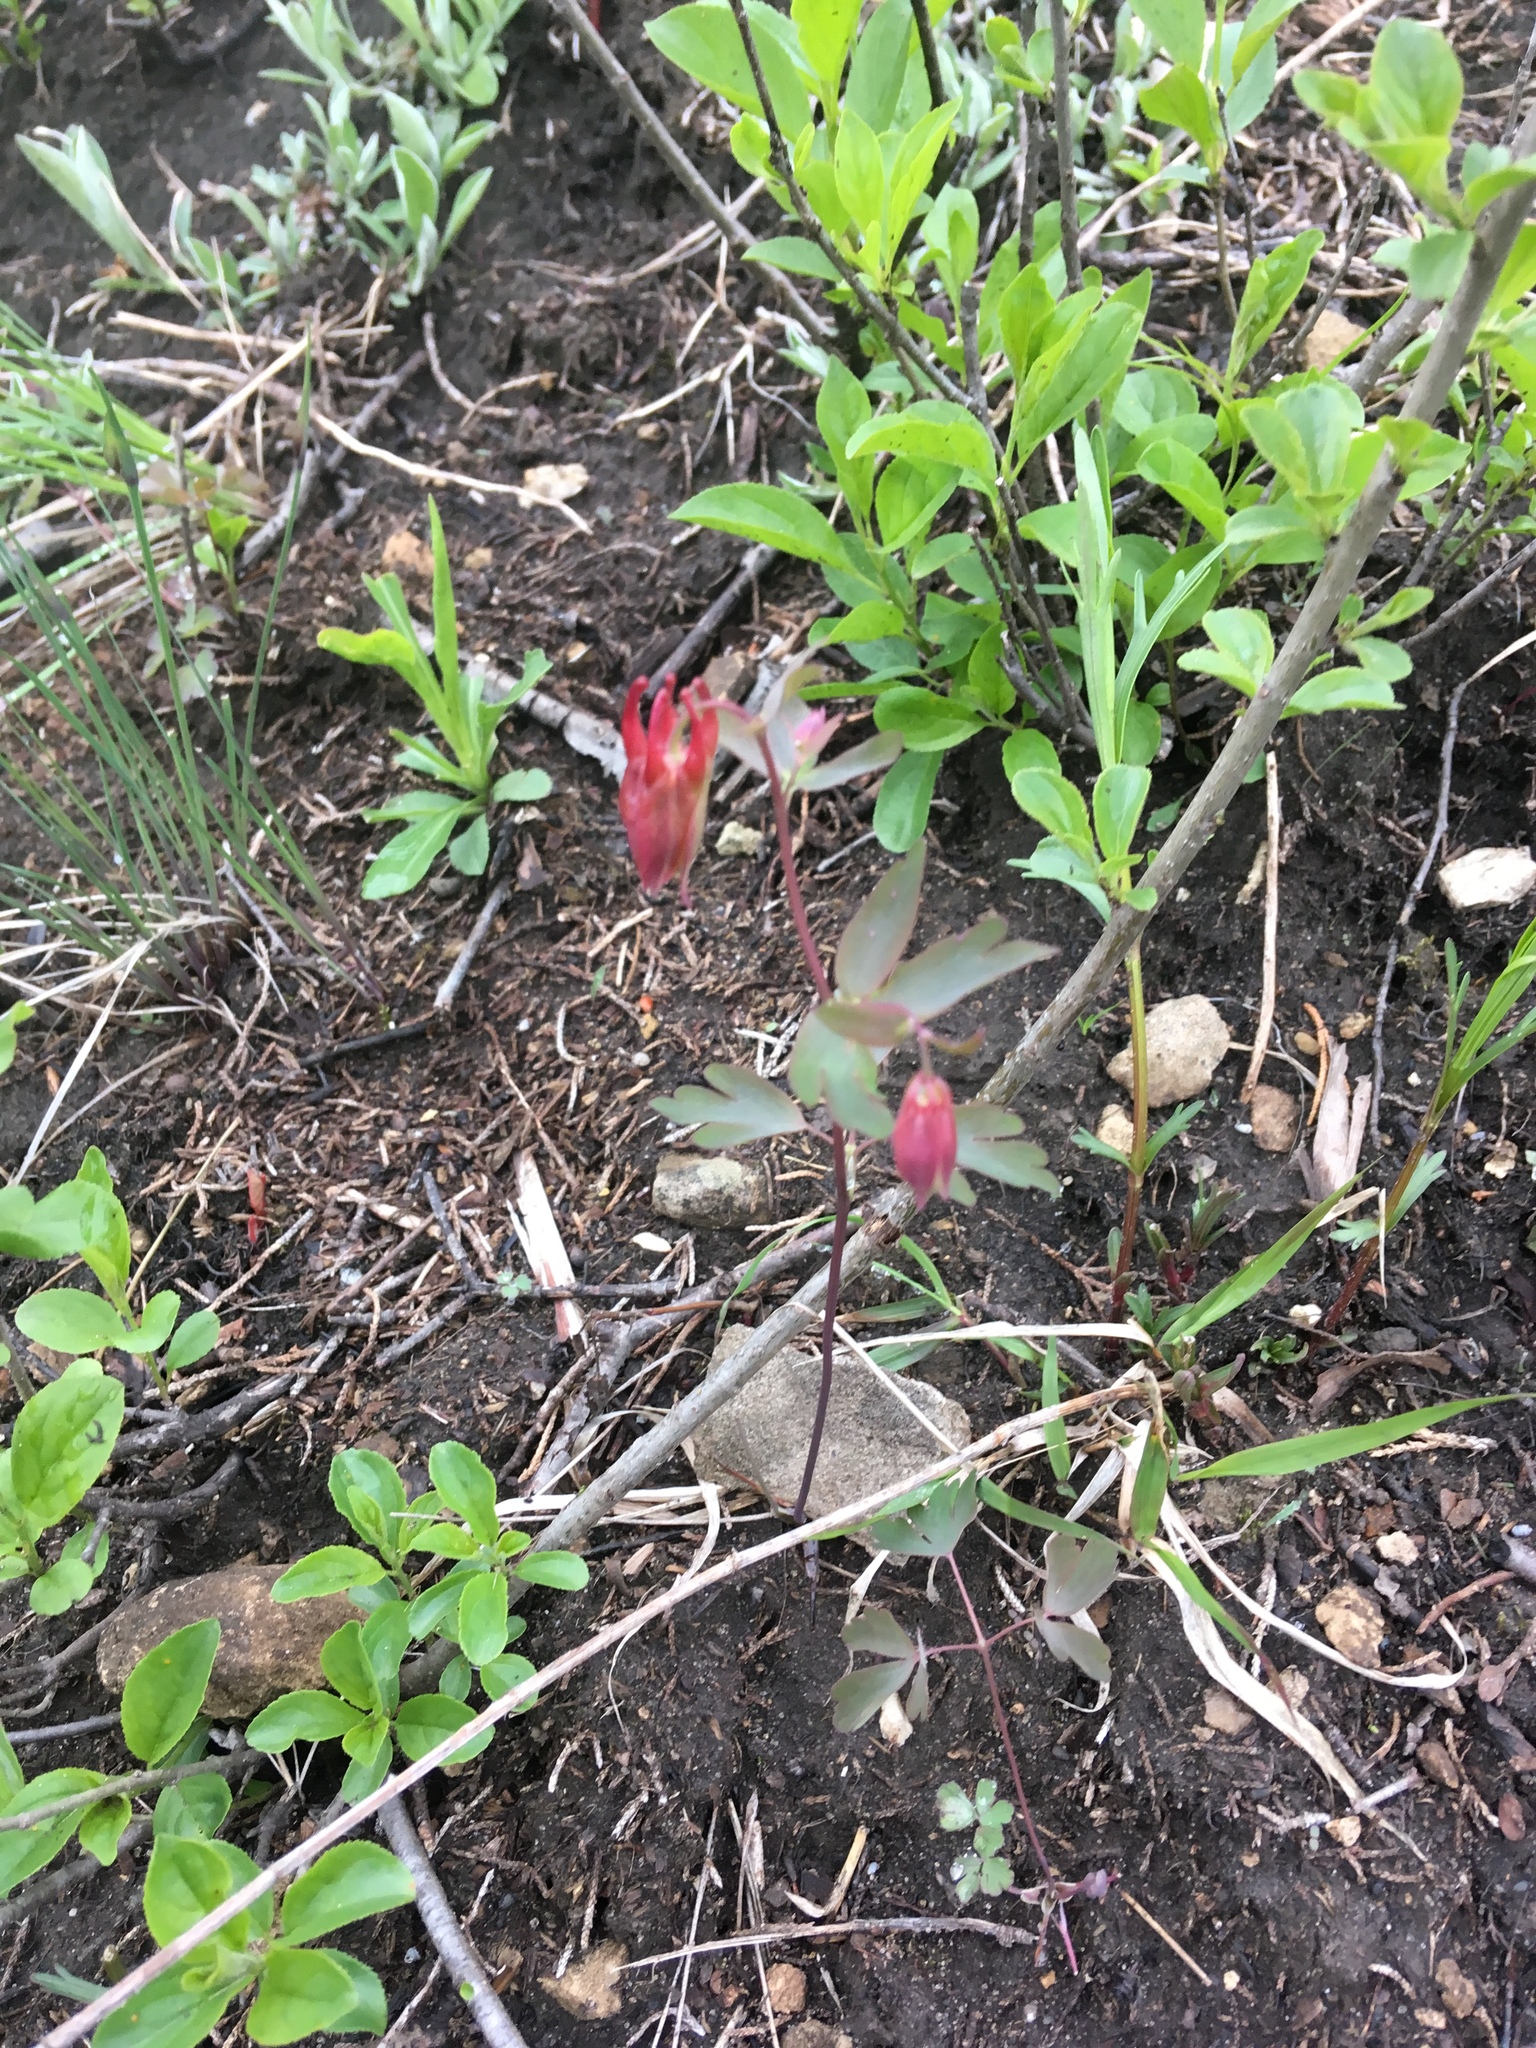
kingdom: Plantae
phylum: Tracheophyta
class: Magnoliopsida
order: Ranunculales
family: Ranunculaceae
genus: Aquilegia
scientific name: Aquilegia canadensis
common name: American columbine
